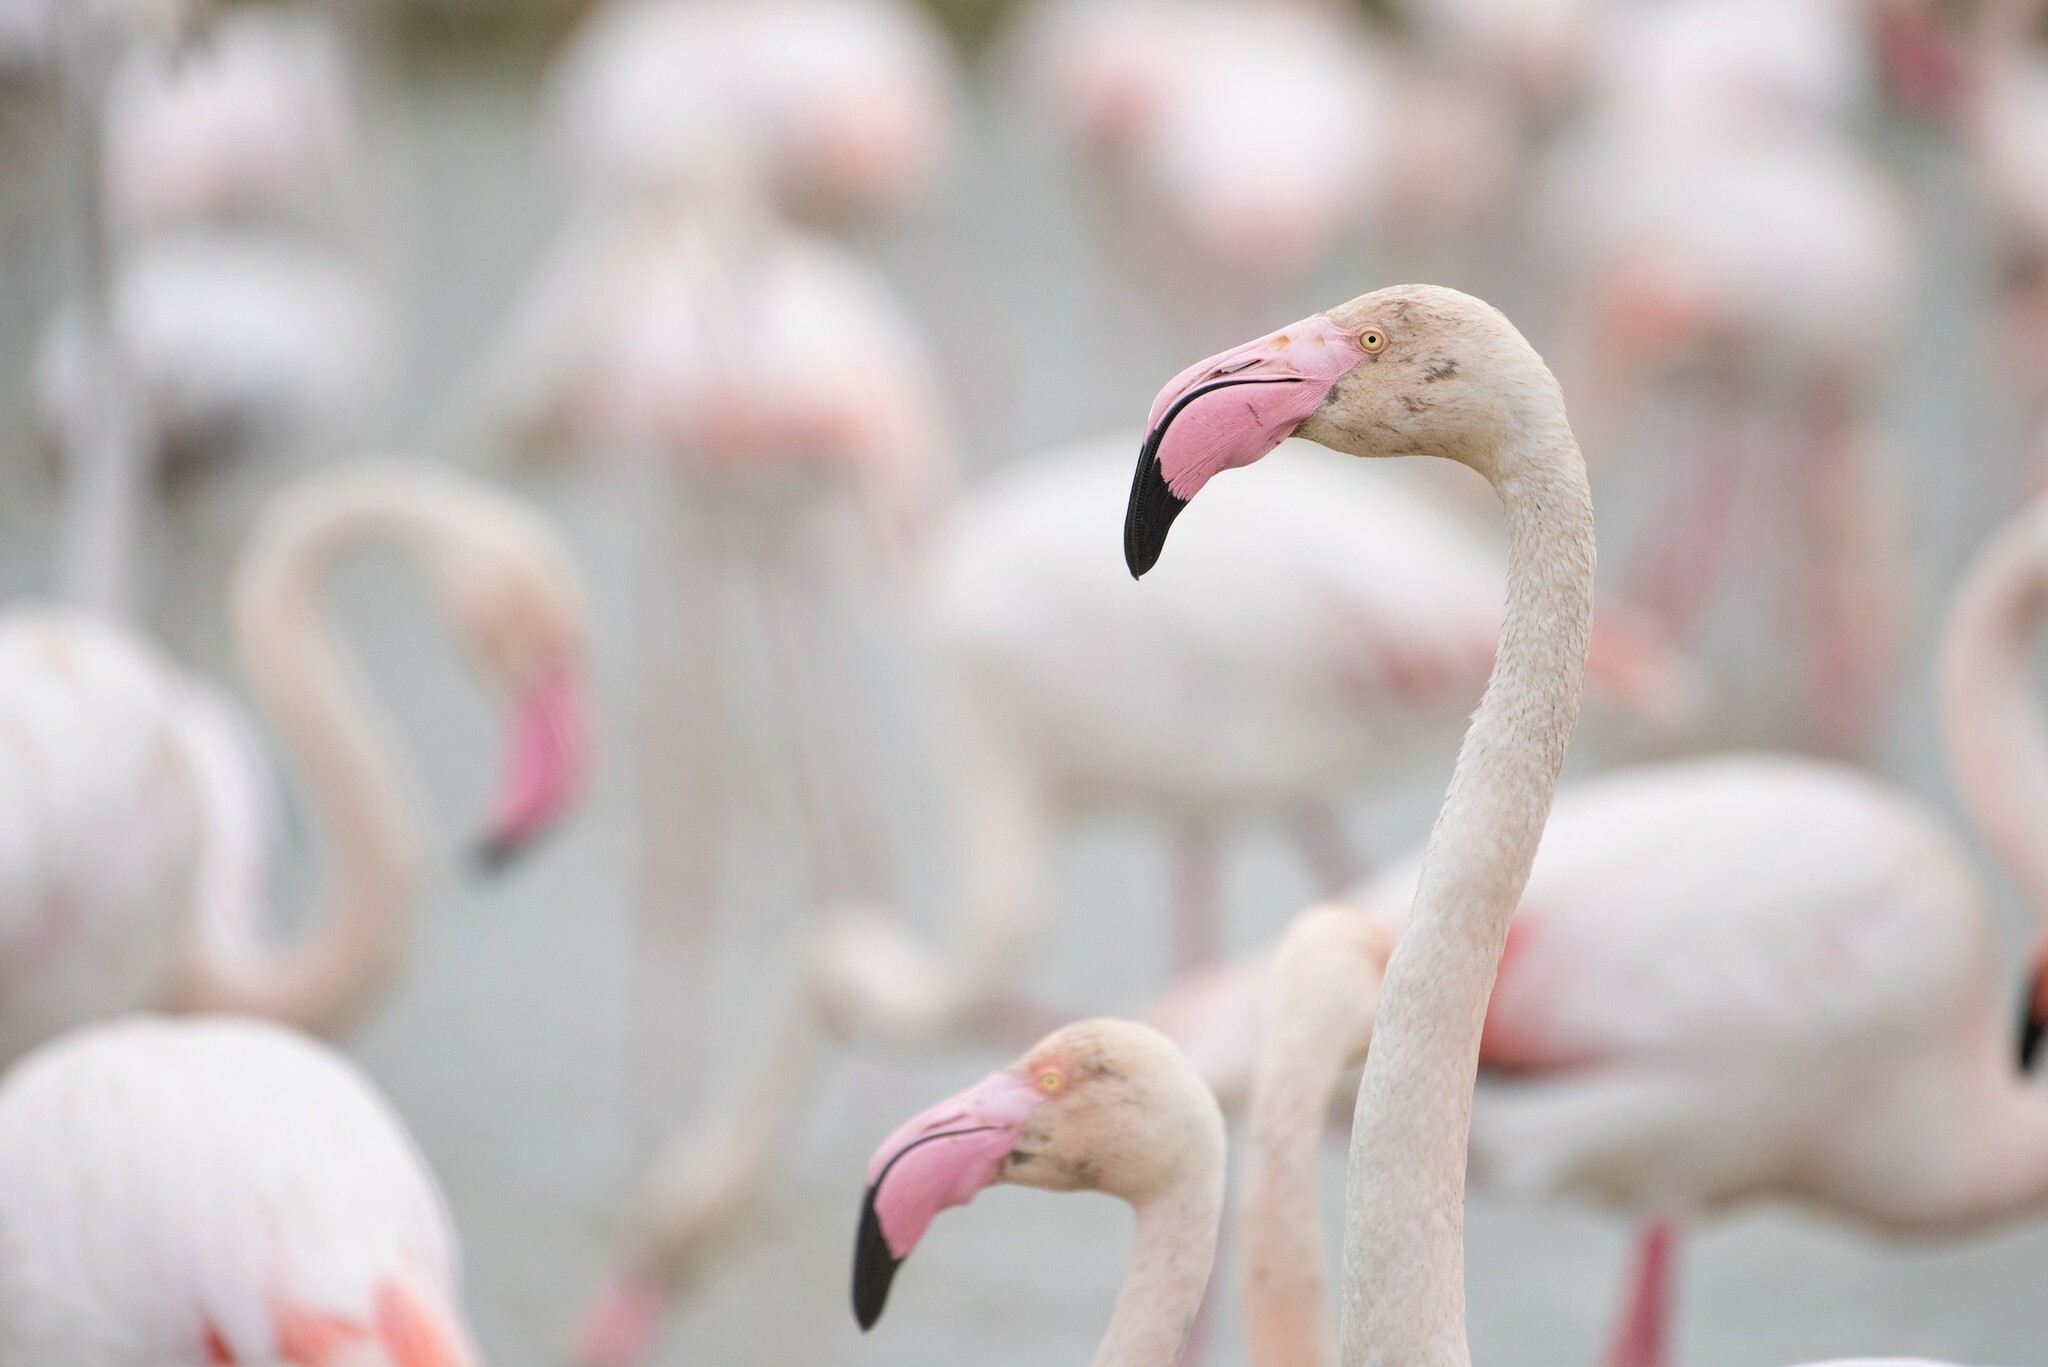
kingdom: Animalia
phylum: Chordata
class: Aves
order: Phoenicopteriformes
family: Phoenicopteridae
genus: Phoenicopterus
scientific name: Phoenicopterus roseus
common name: Greater flamingo
